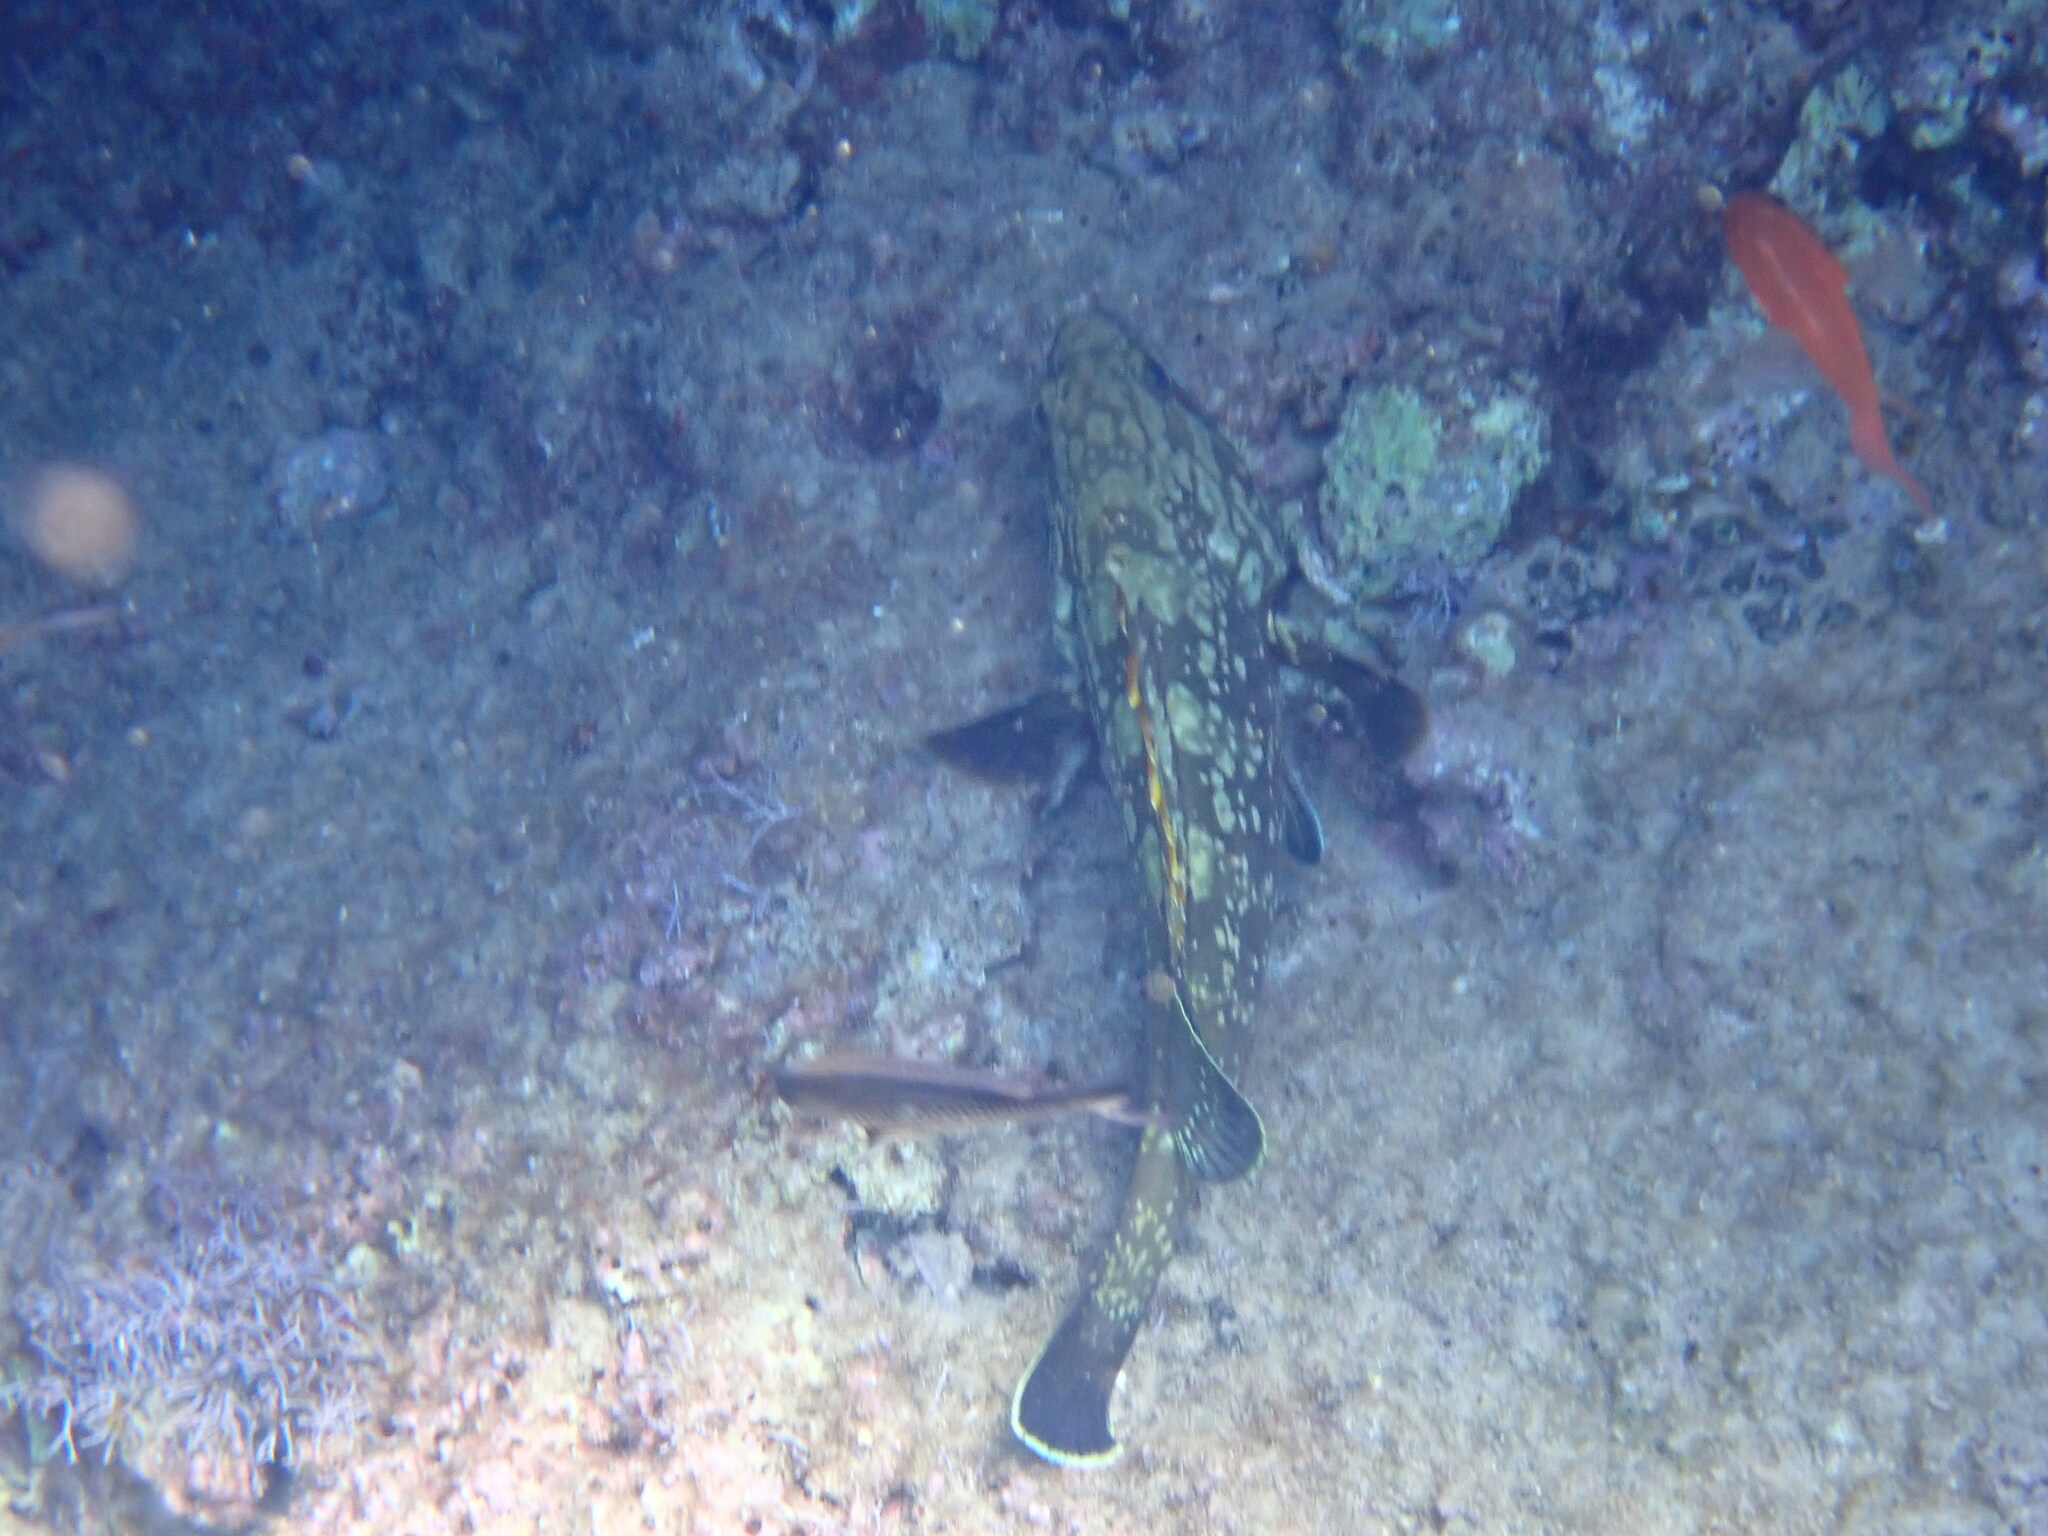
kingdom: Animalia
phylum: Chordata
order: Perciformes
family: Serranidae
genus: Epinephelus
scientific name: Epinephelus marginatus
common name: Dusky grouper
